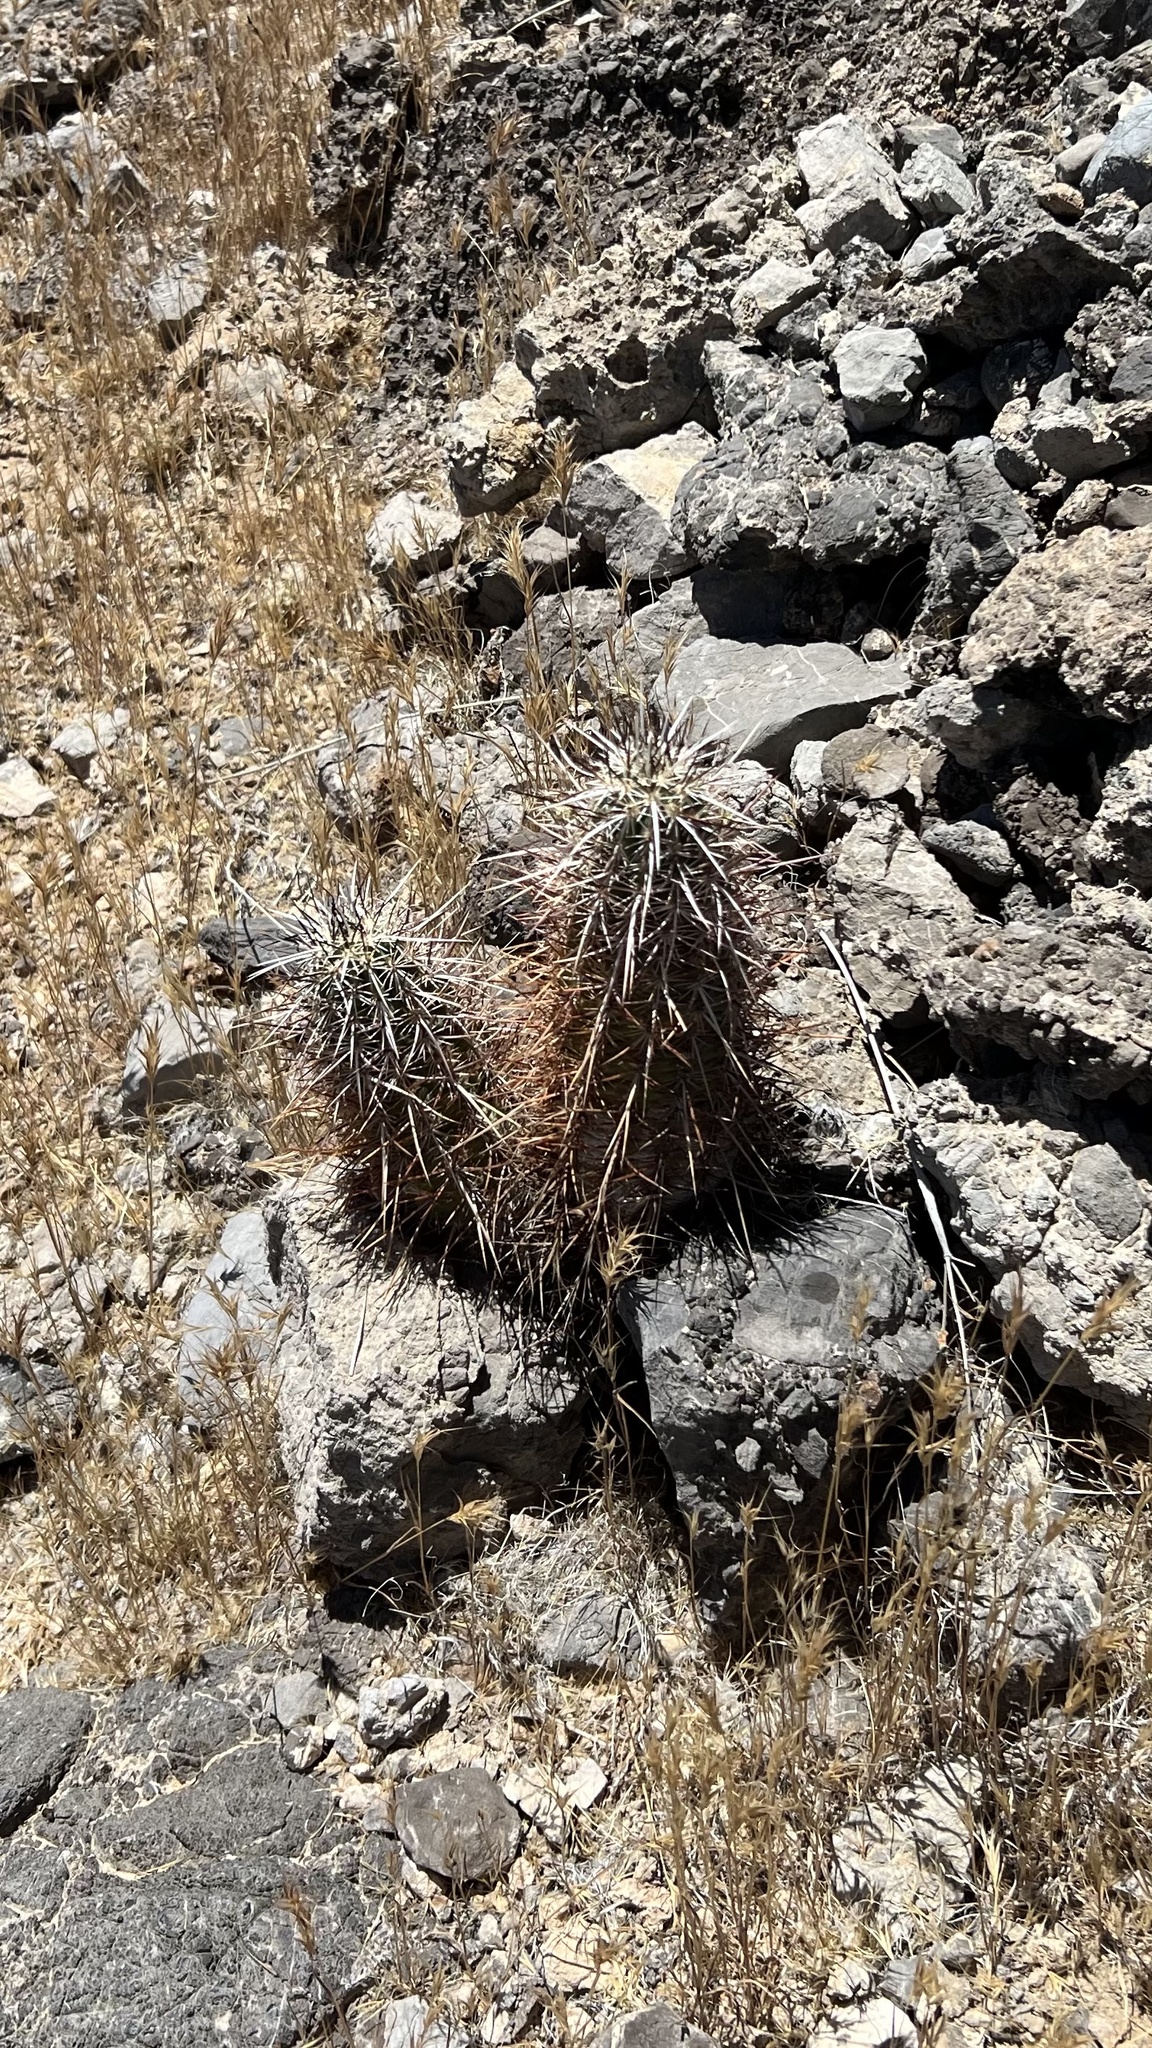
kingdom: Plantae
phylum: Tracheophyta
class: Magnoliopsida
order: Caryophyllales
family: Cactaceae
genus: Echinocereus
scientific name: Echinocereus engelmannii
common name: Engelmann's hedgehog cactus
